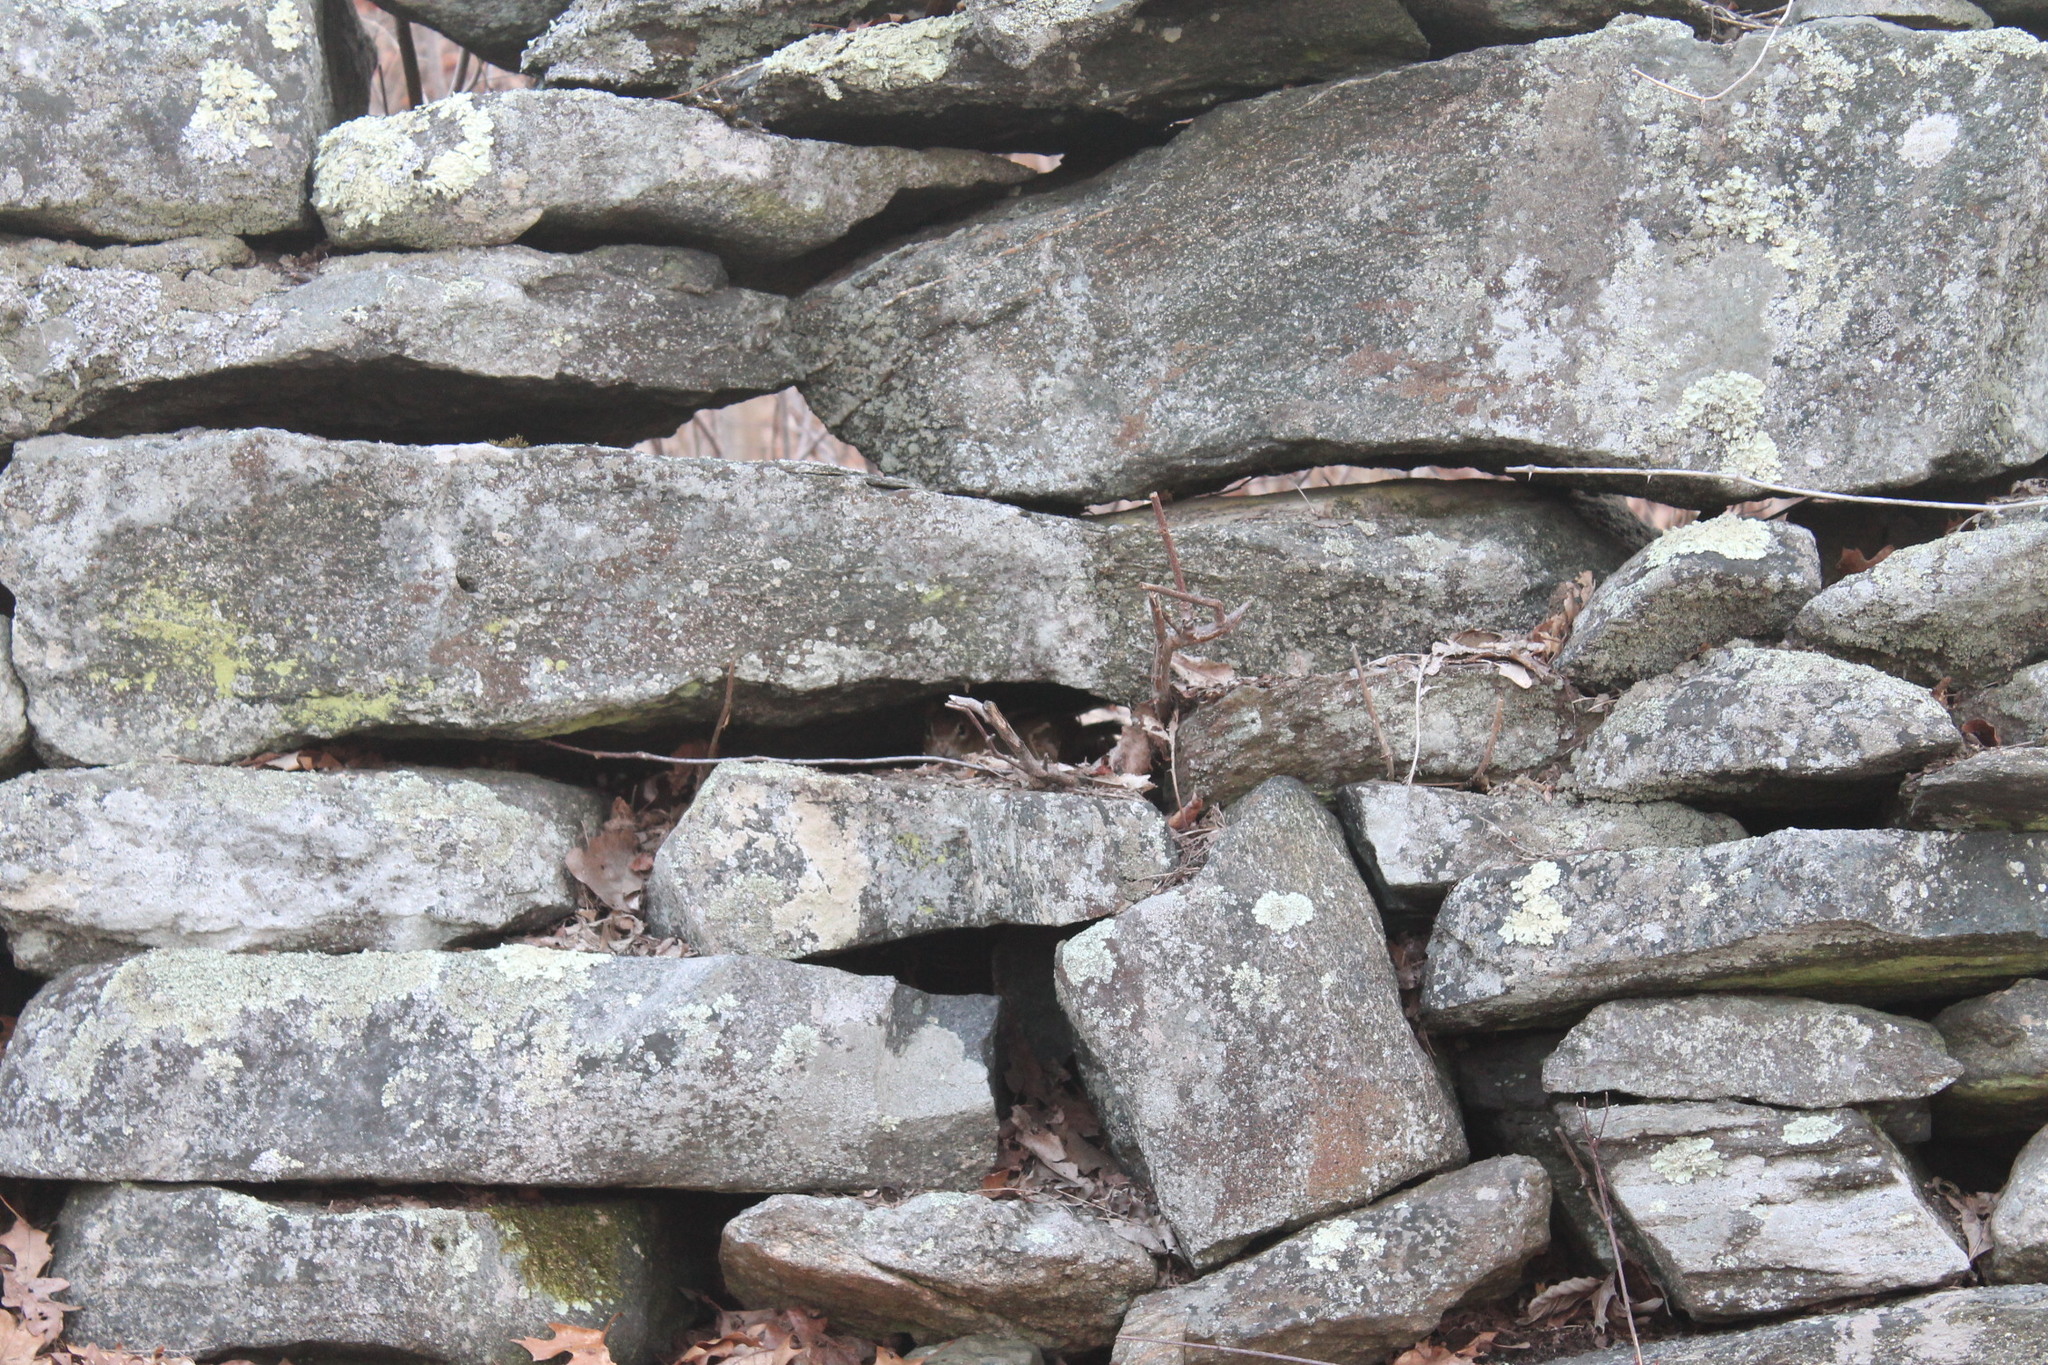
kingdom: Animalia
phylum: Chordata
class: Mammalia
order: Rodentia
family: Sciuridae
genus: Tamias
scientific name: Tamias striatus
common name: Eastern chipmunk
